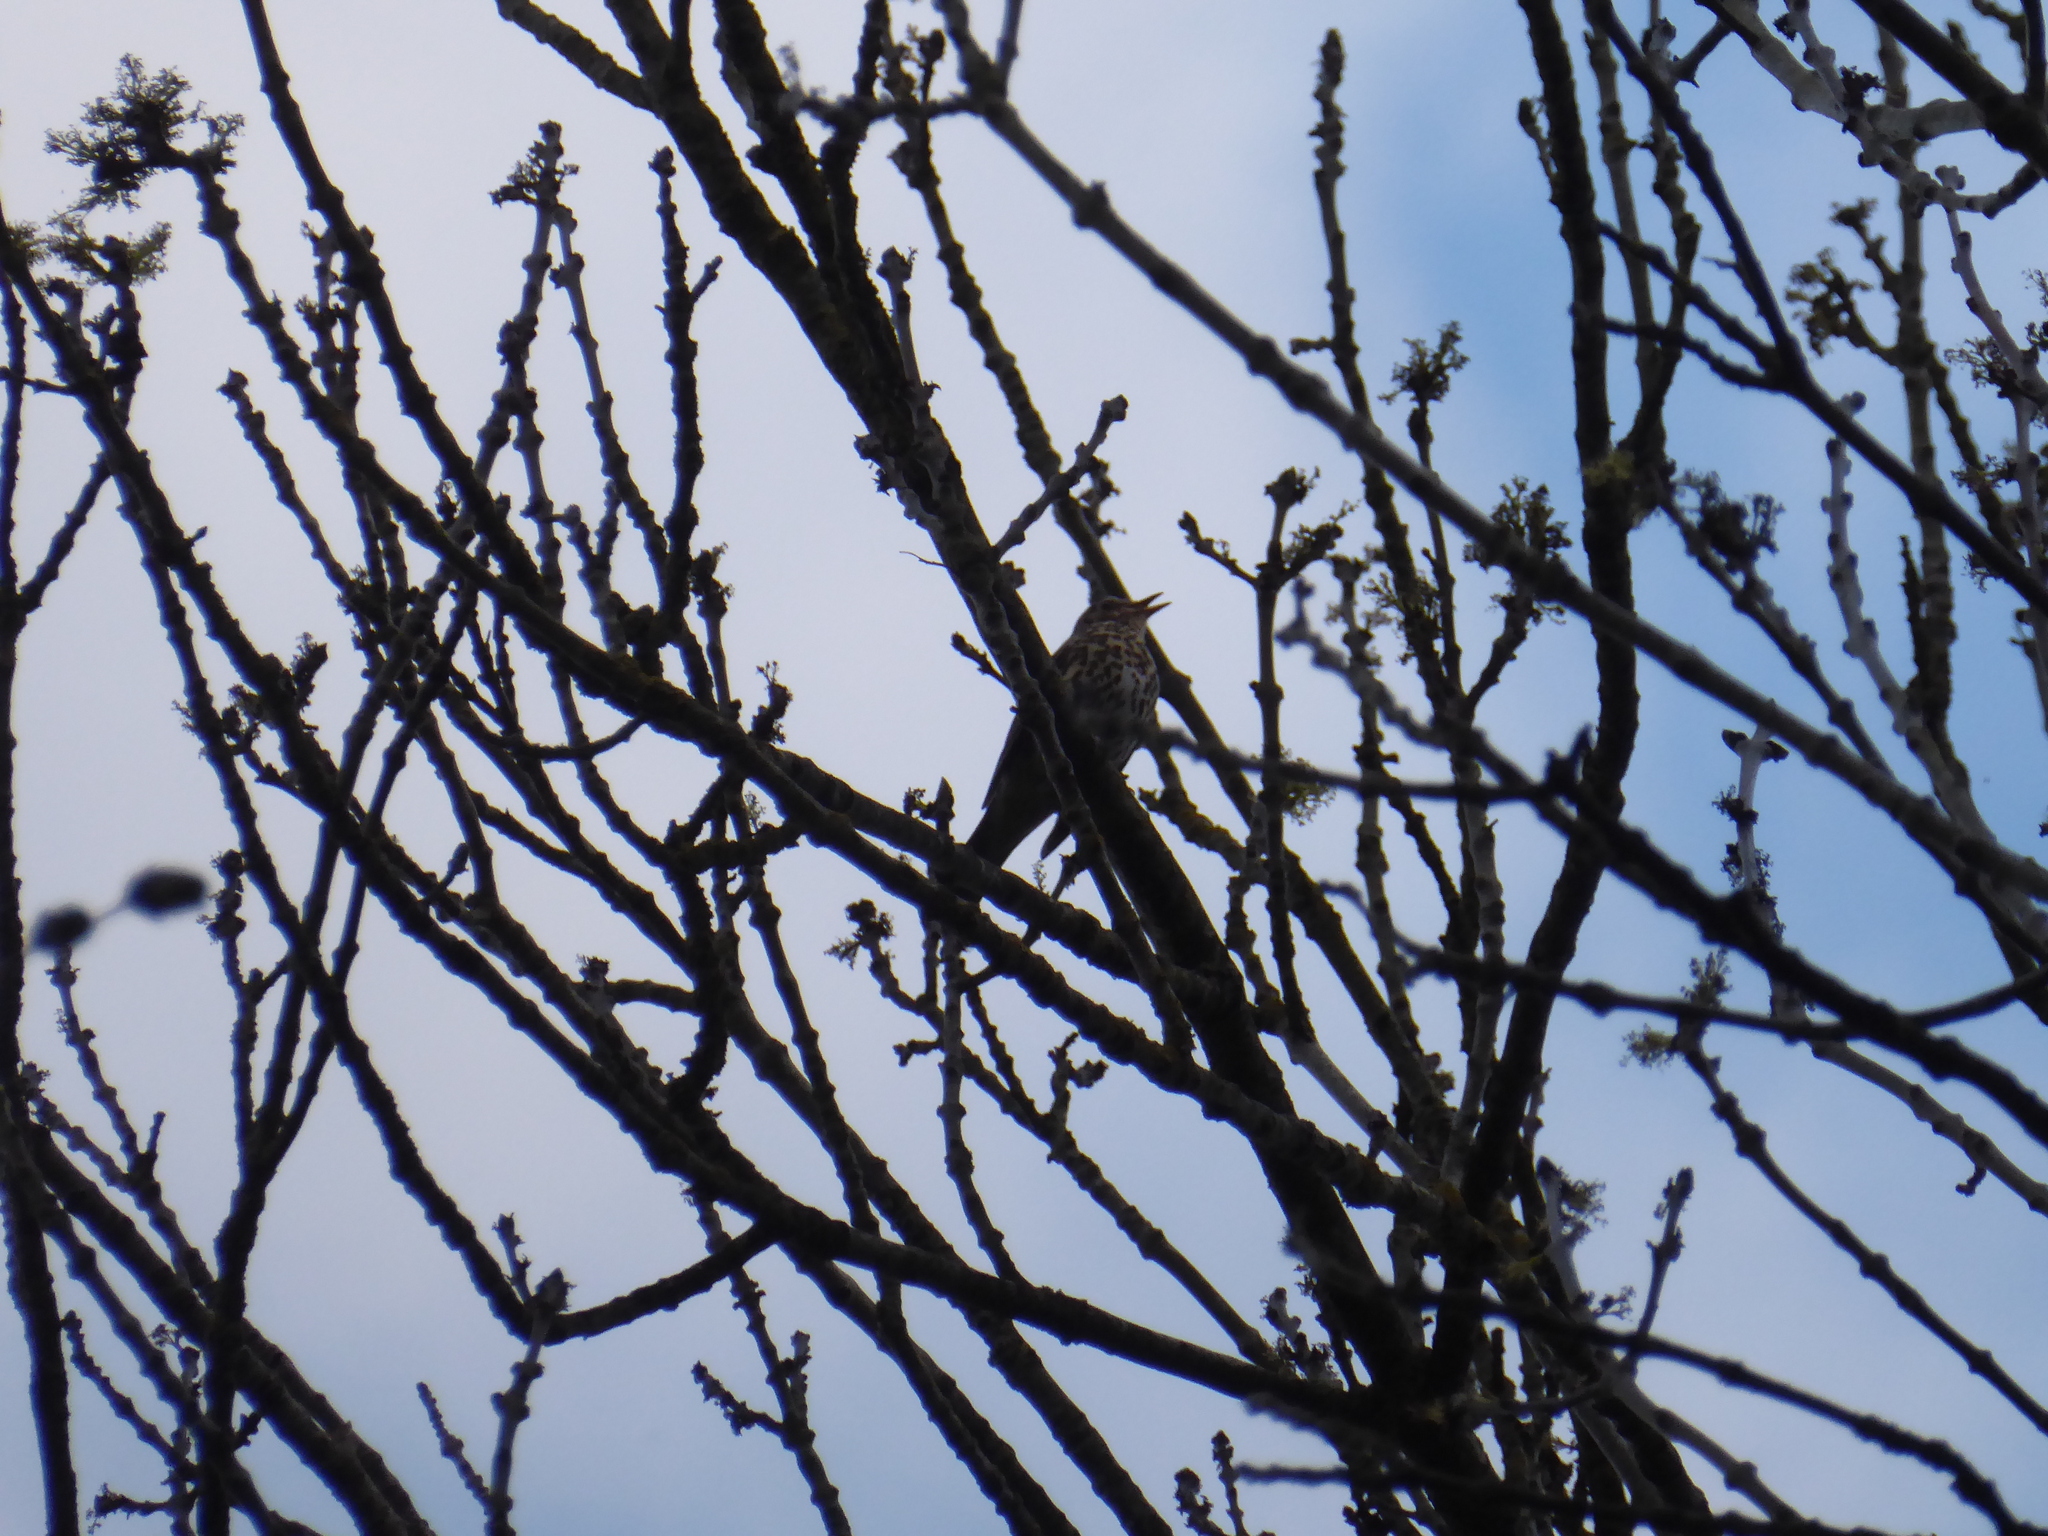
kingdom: Animalia
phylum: Chordata
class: Aves
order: Passeriformes
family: Turdidae
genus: Turdus
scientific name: Turdus philomelos
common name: Song thrush
